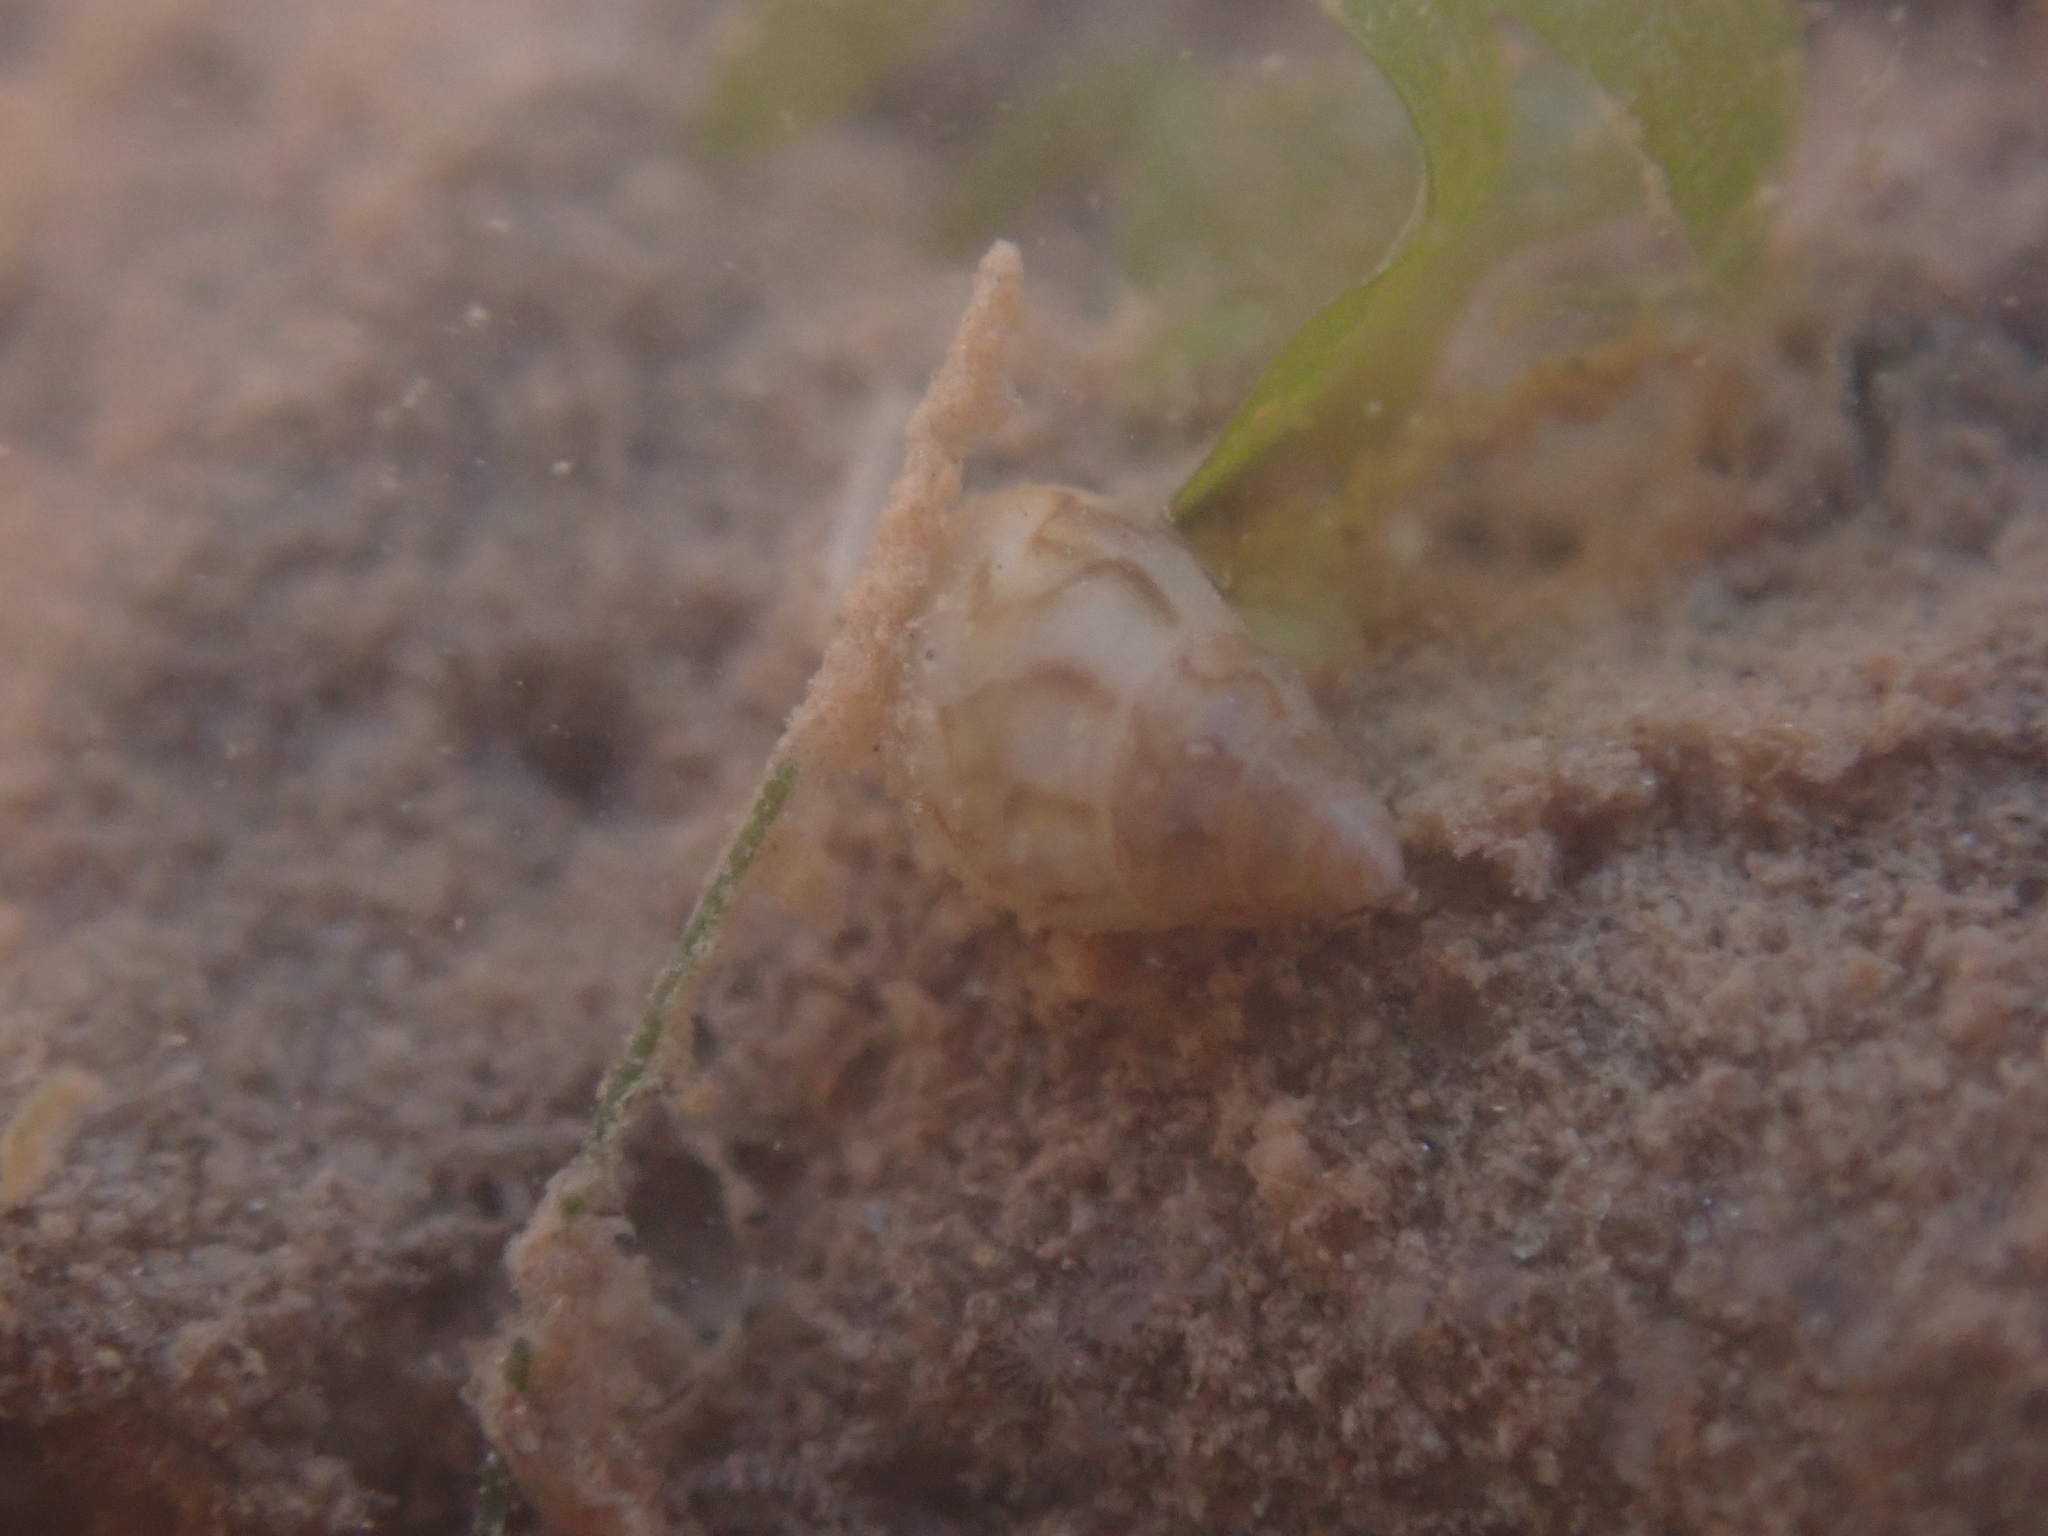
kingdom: Animalia
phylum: Mollusca
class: Gastropoda
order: Neogastropoda
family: Columbellidae
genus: Astyris
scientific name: Astyris lunata
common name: Lunar dovesnail
